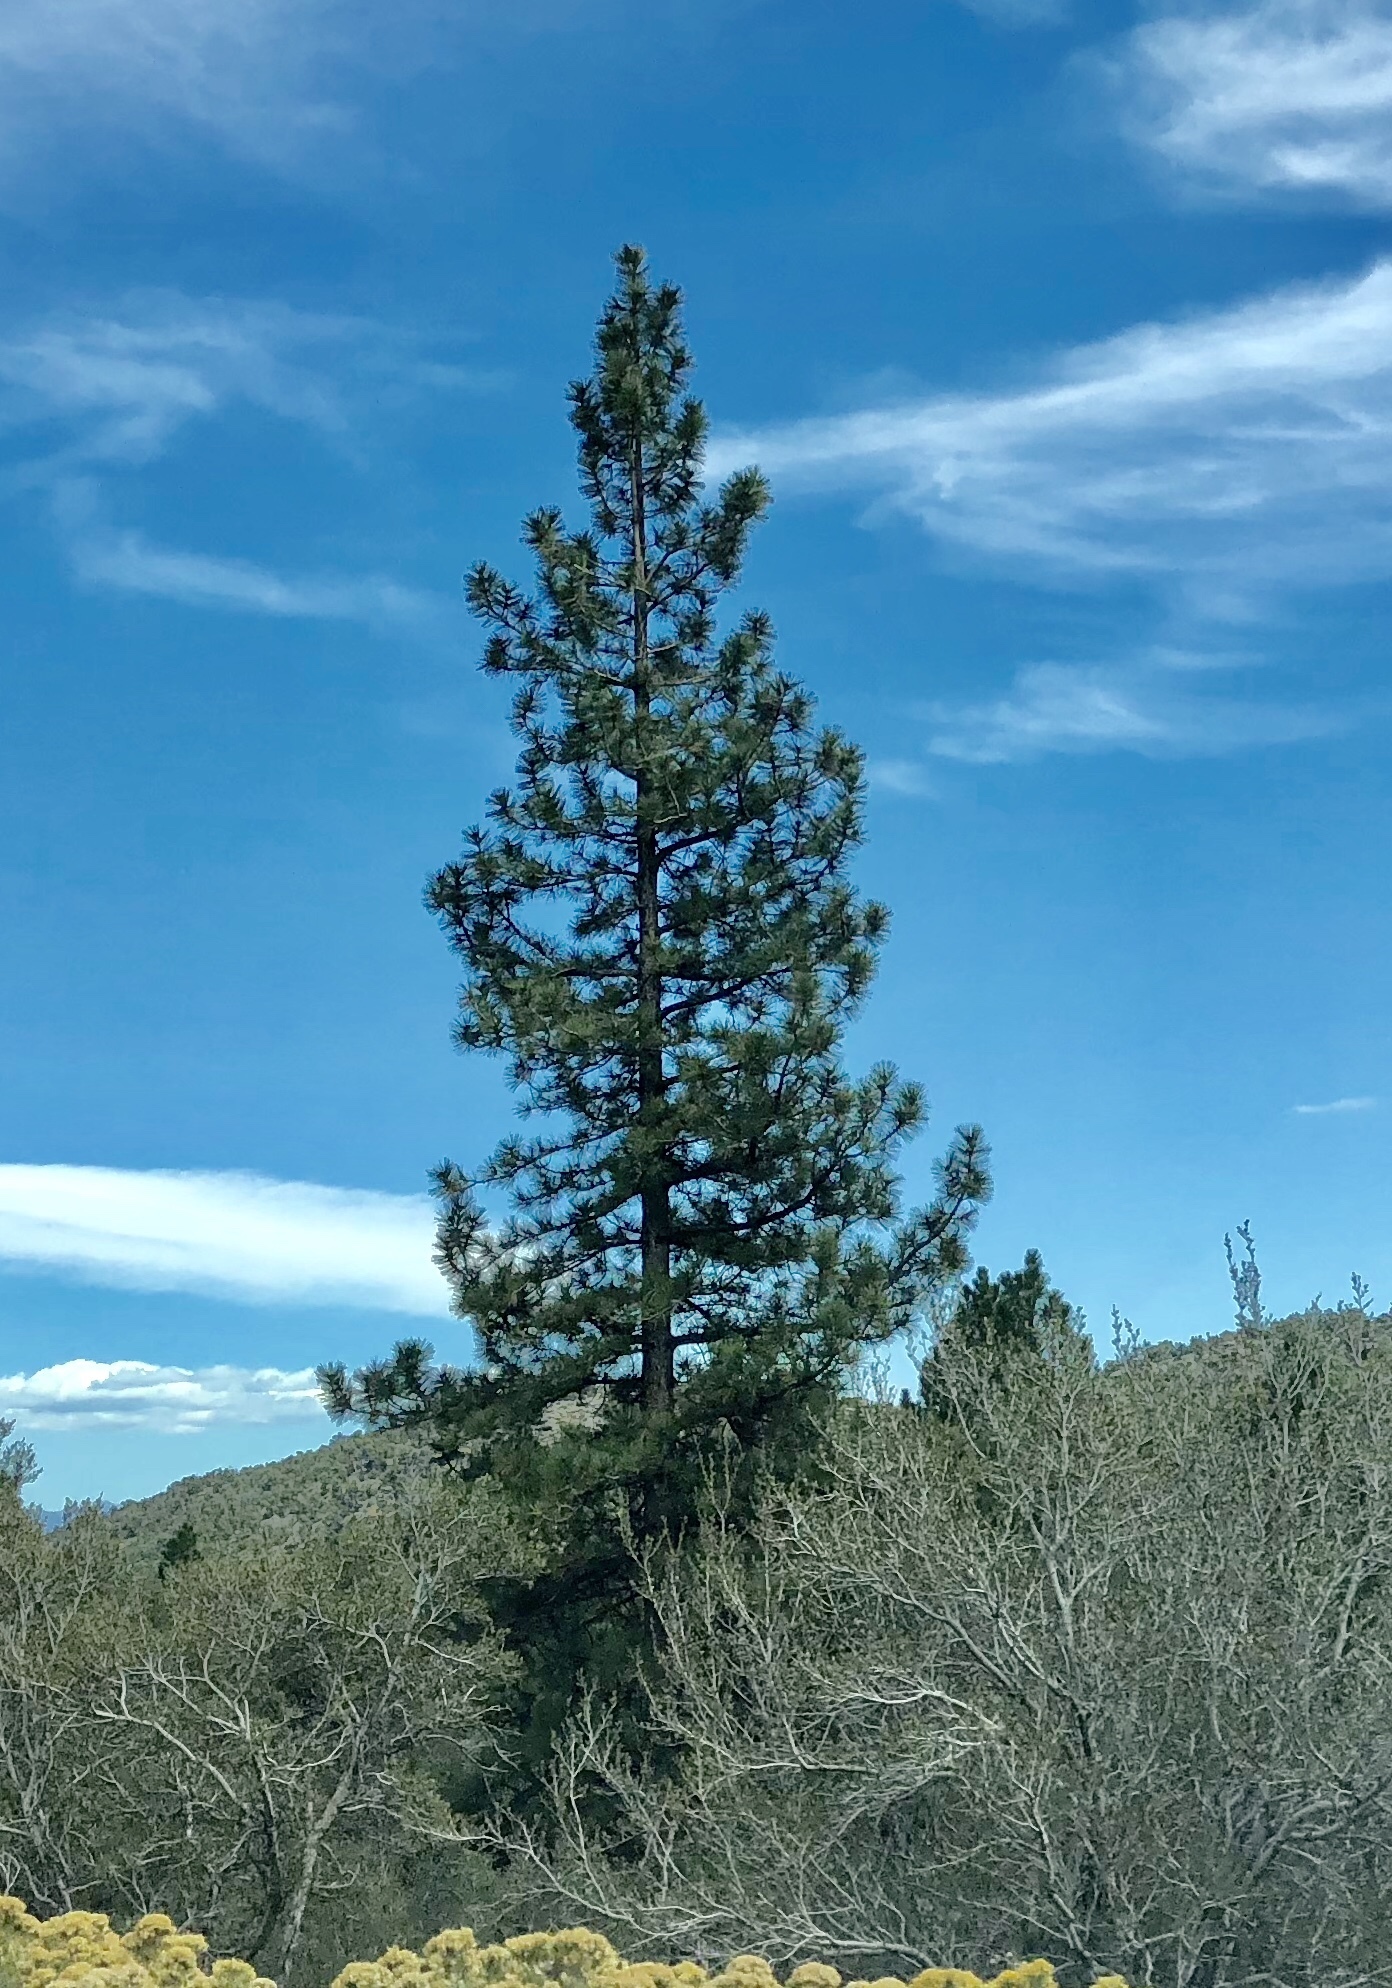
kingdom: Plantae
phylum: Tracheophyta
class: Pinopsida
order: Pinales
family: Pinaceae
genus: Pinus
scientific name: Pinus ponderosa
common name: Western yellow-pine
